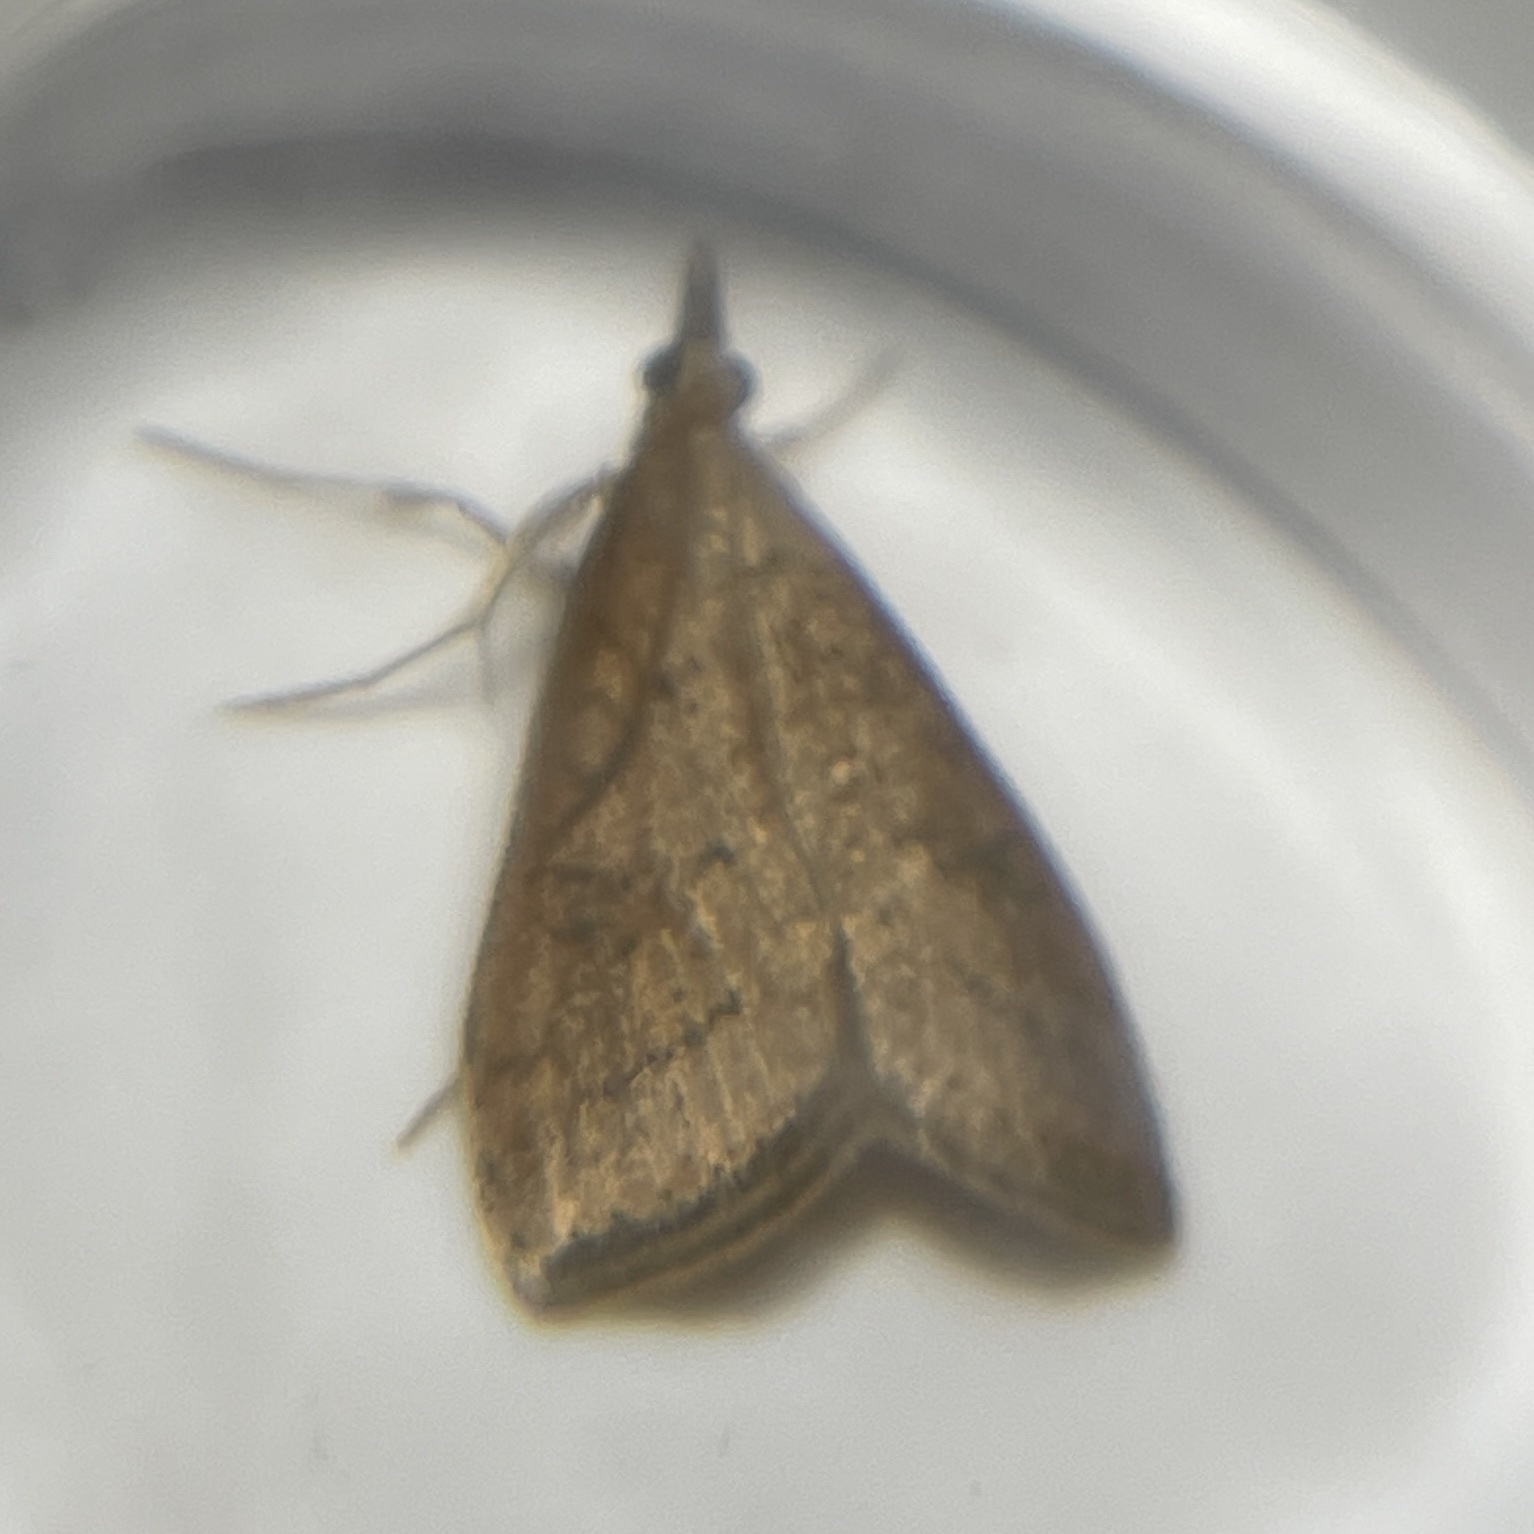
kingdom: Animalia
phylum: Arthropoda
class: Insecta
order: Lepidoptera
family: Crambidae
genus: Udea
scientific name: Udea rubigalis
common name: Celery leaftier moth
